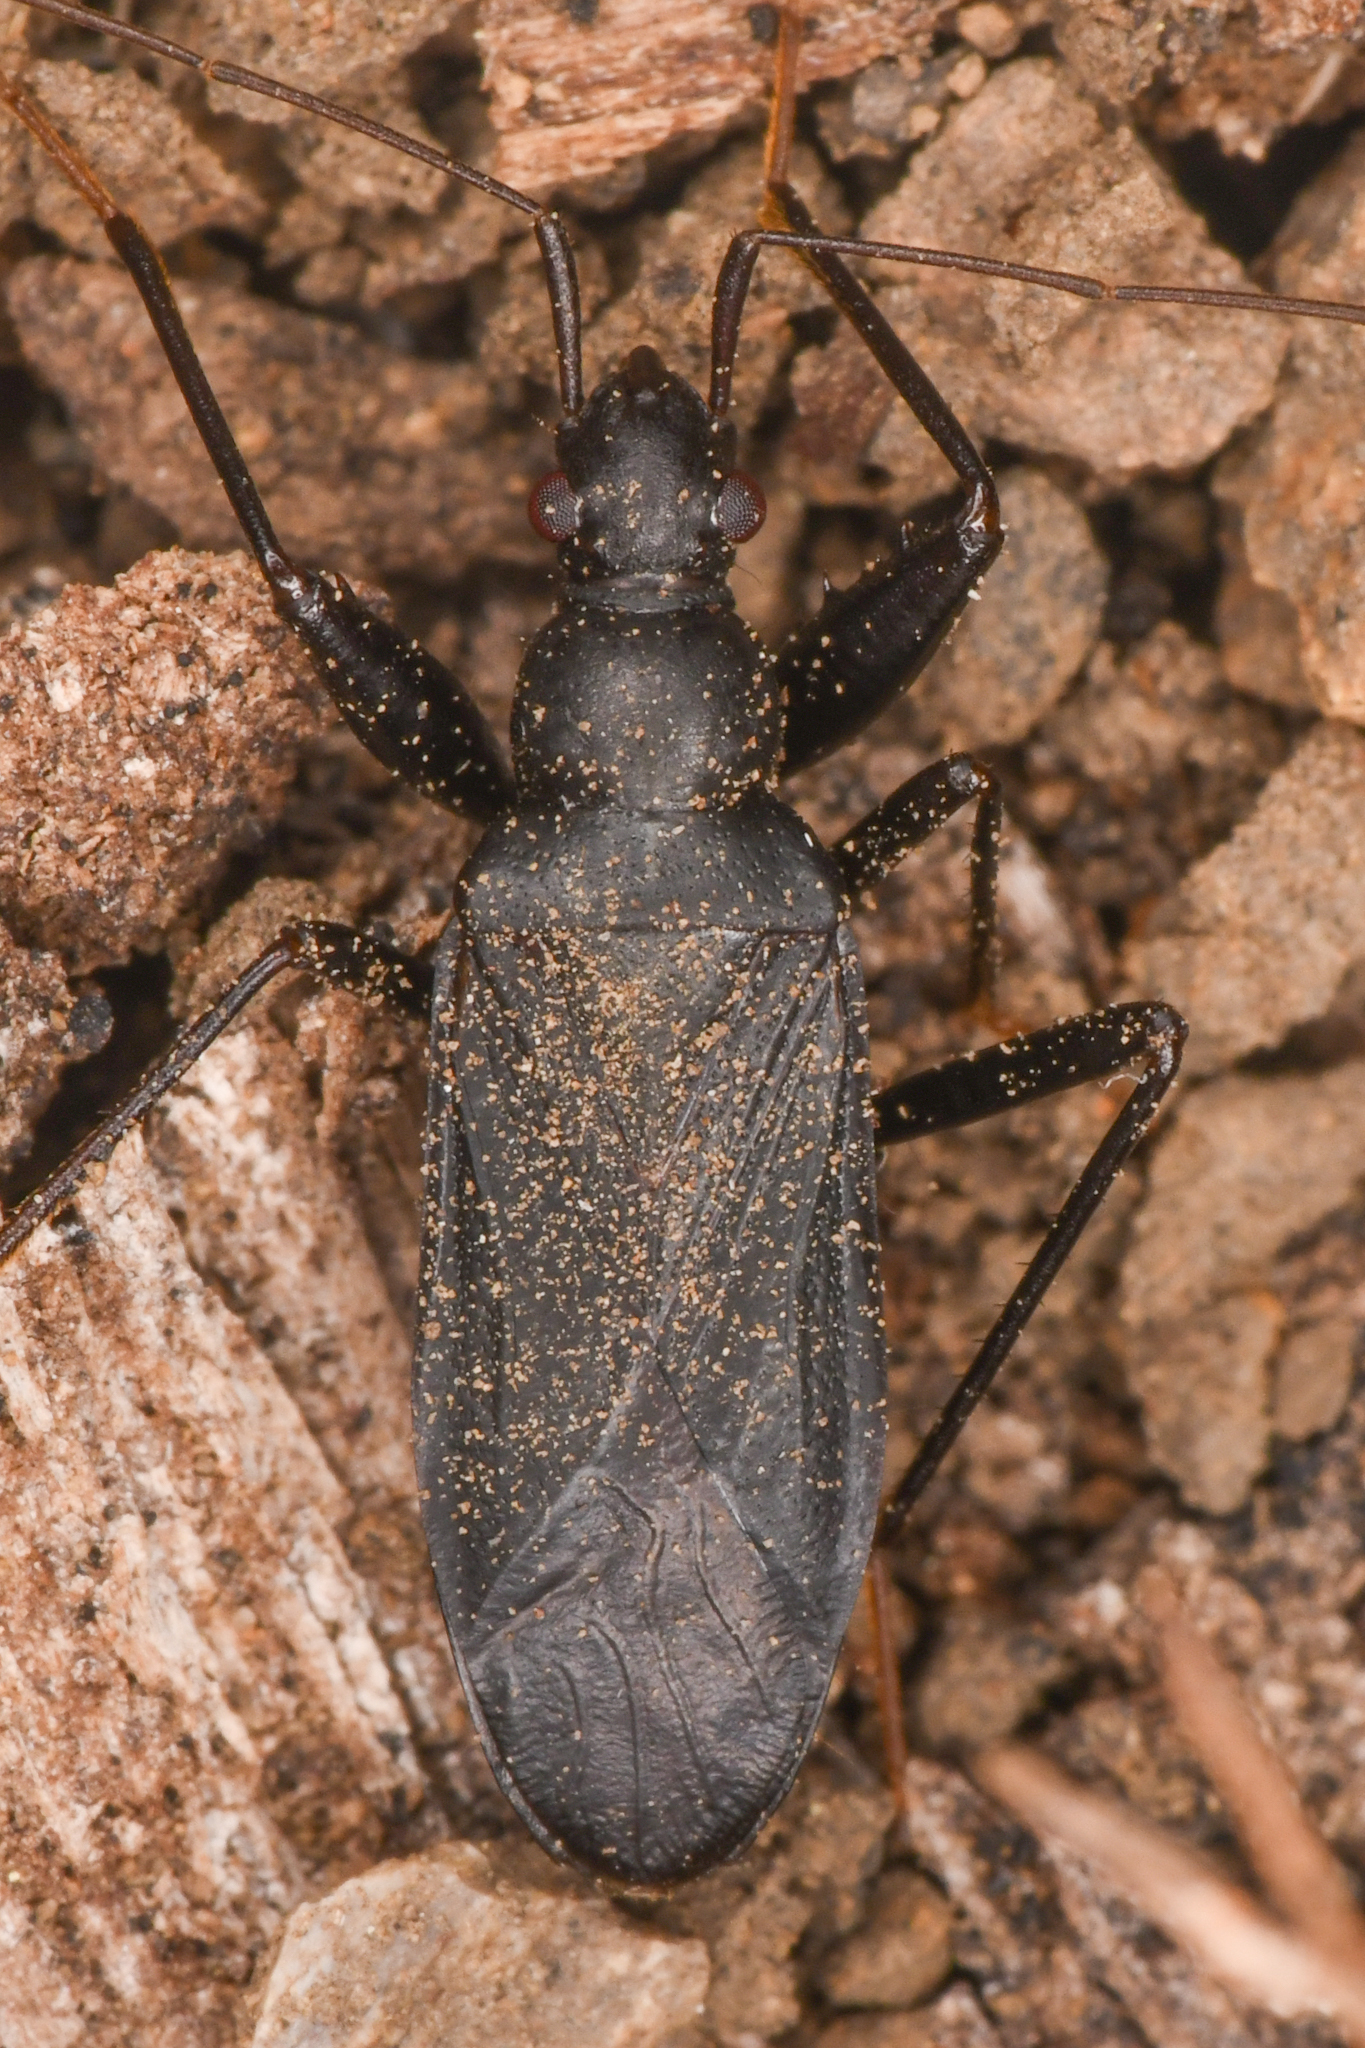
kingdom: Animalia
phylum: Arthropoda
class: Insecta
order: Hemiptera
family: Rhyparochromidae
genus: Zeropamera
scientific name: Zeropamera nigra
